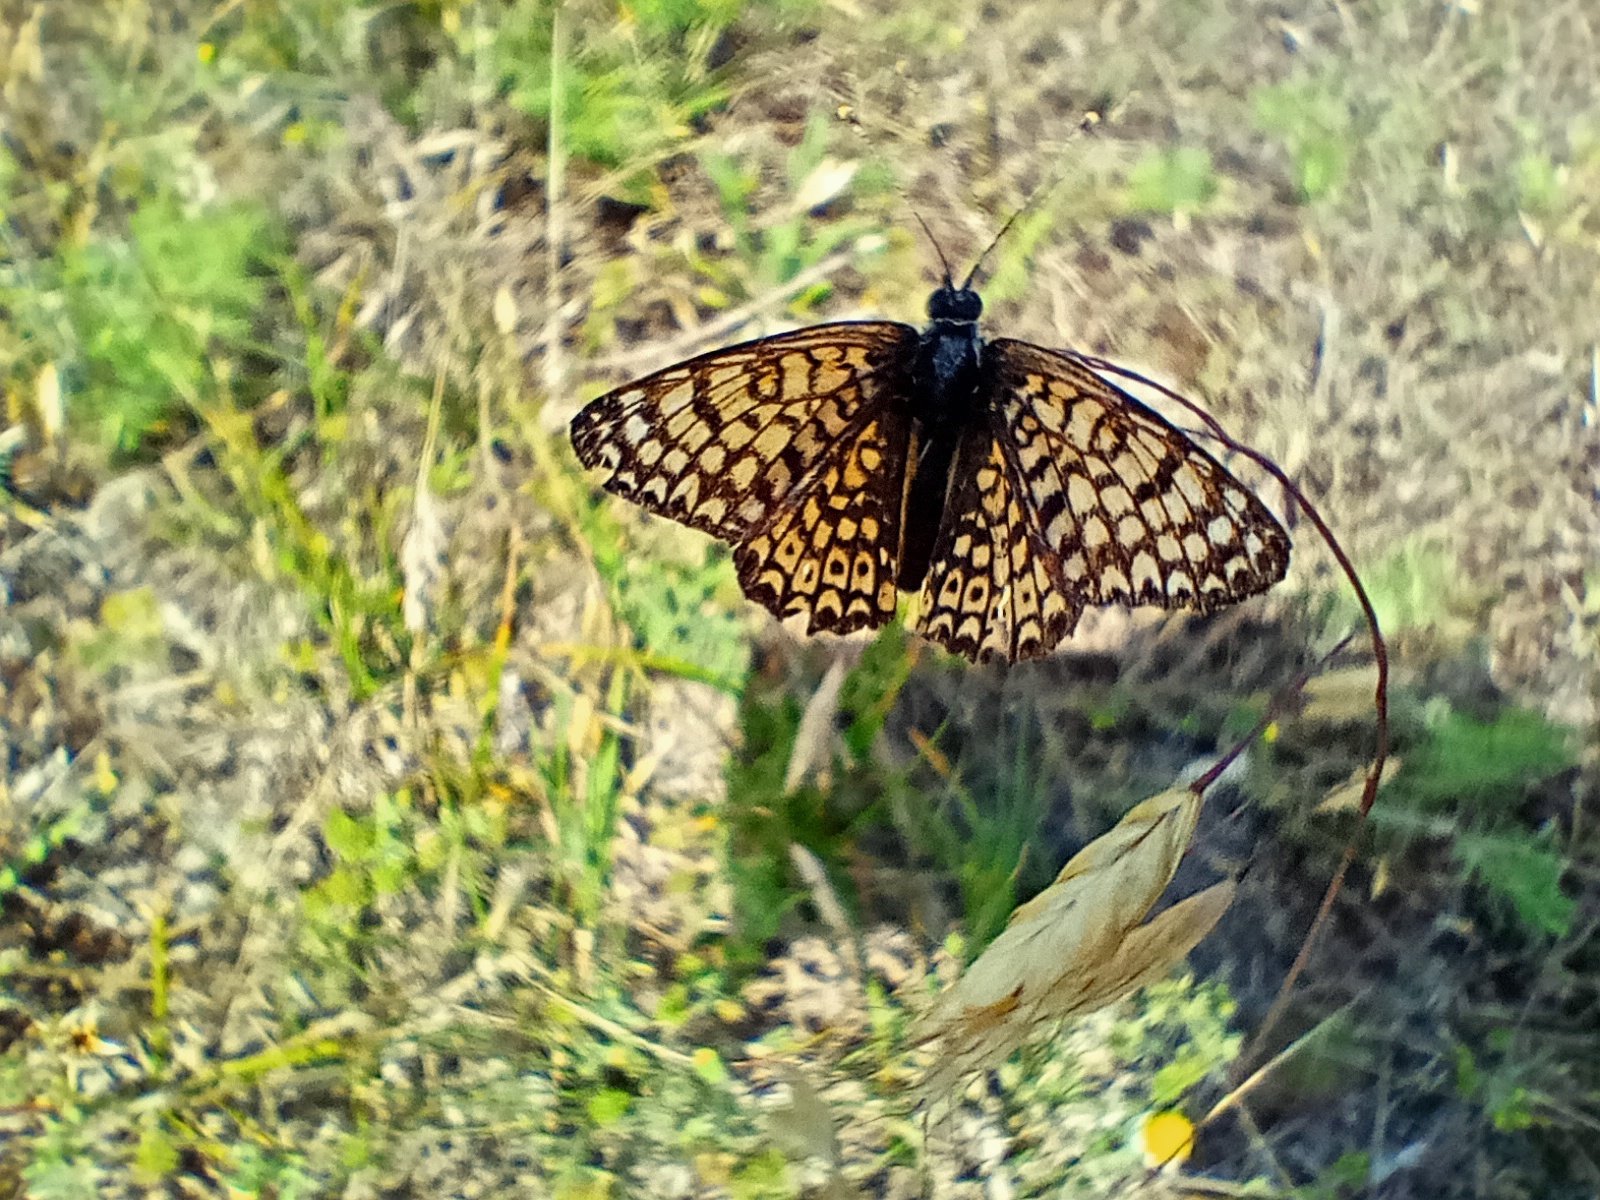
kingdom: Animalia
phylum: Arthropoda
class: Insecta
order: Lepidoptera
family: Nymphalidae
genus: Melitaea
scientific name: Melitaea cinxia
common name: Glanville fritillary
